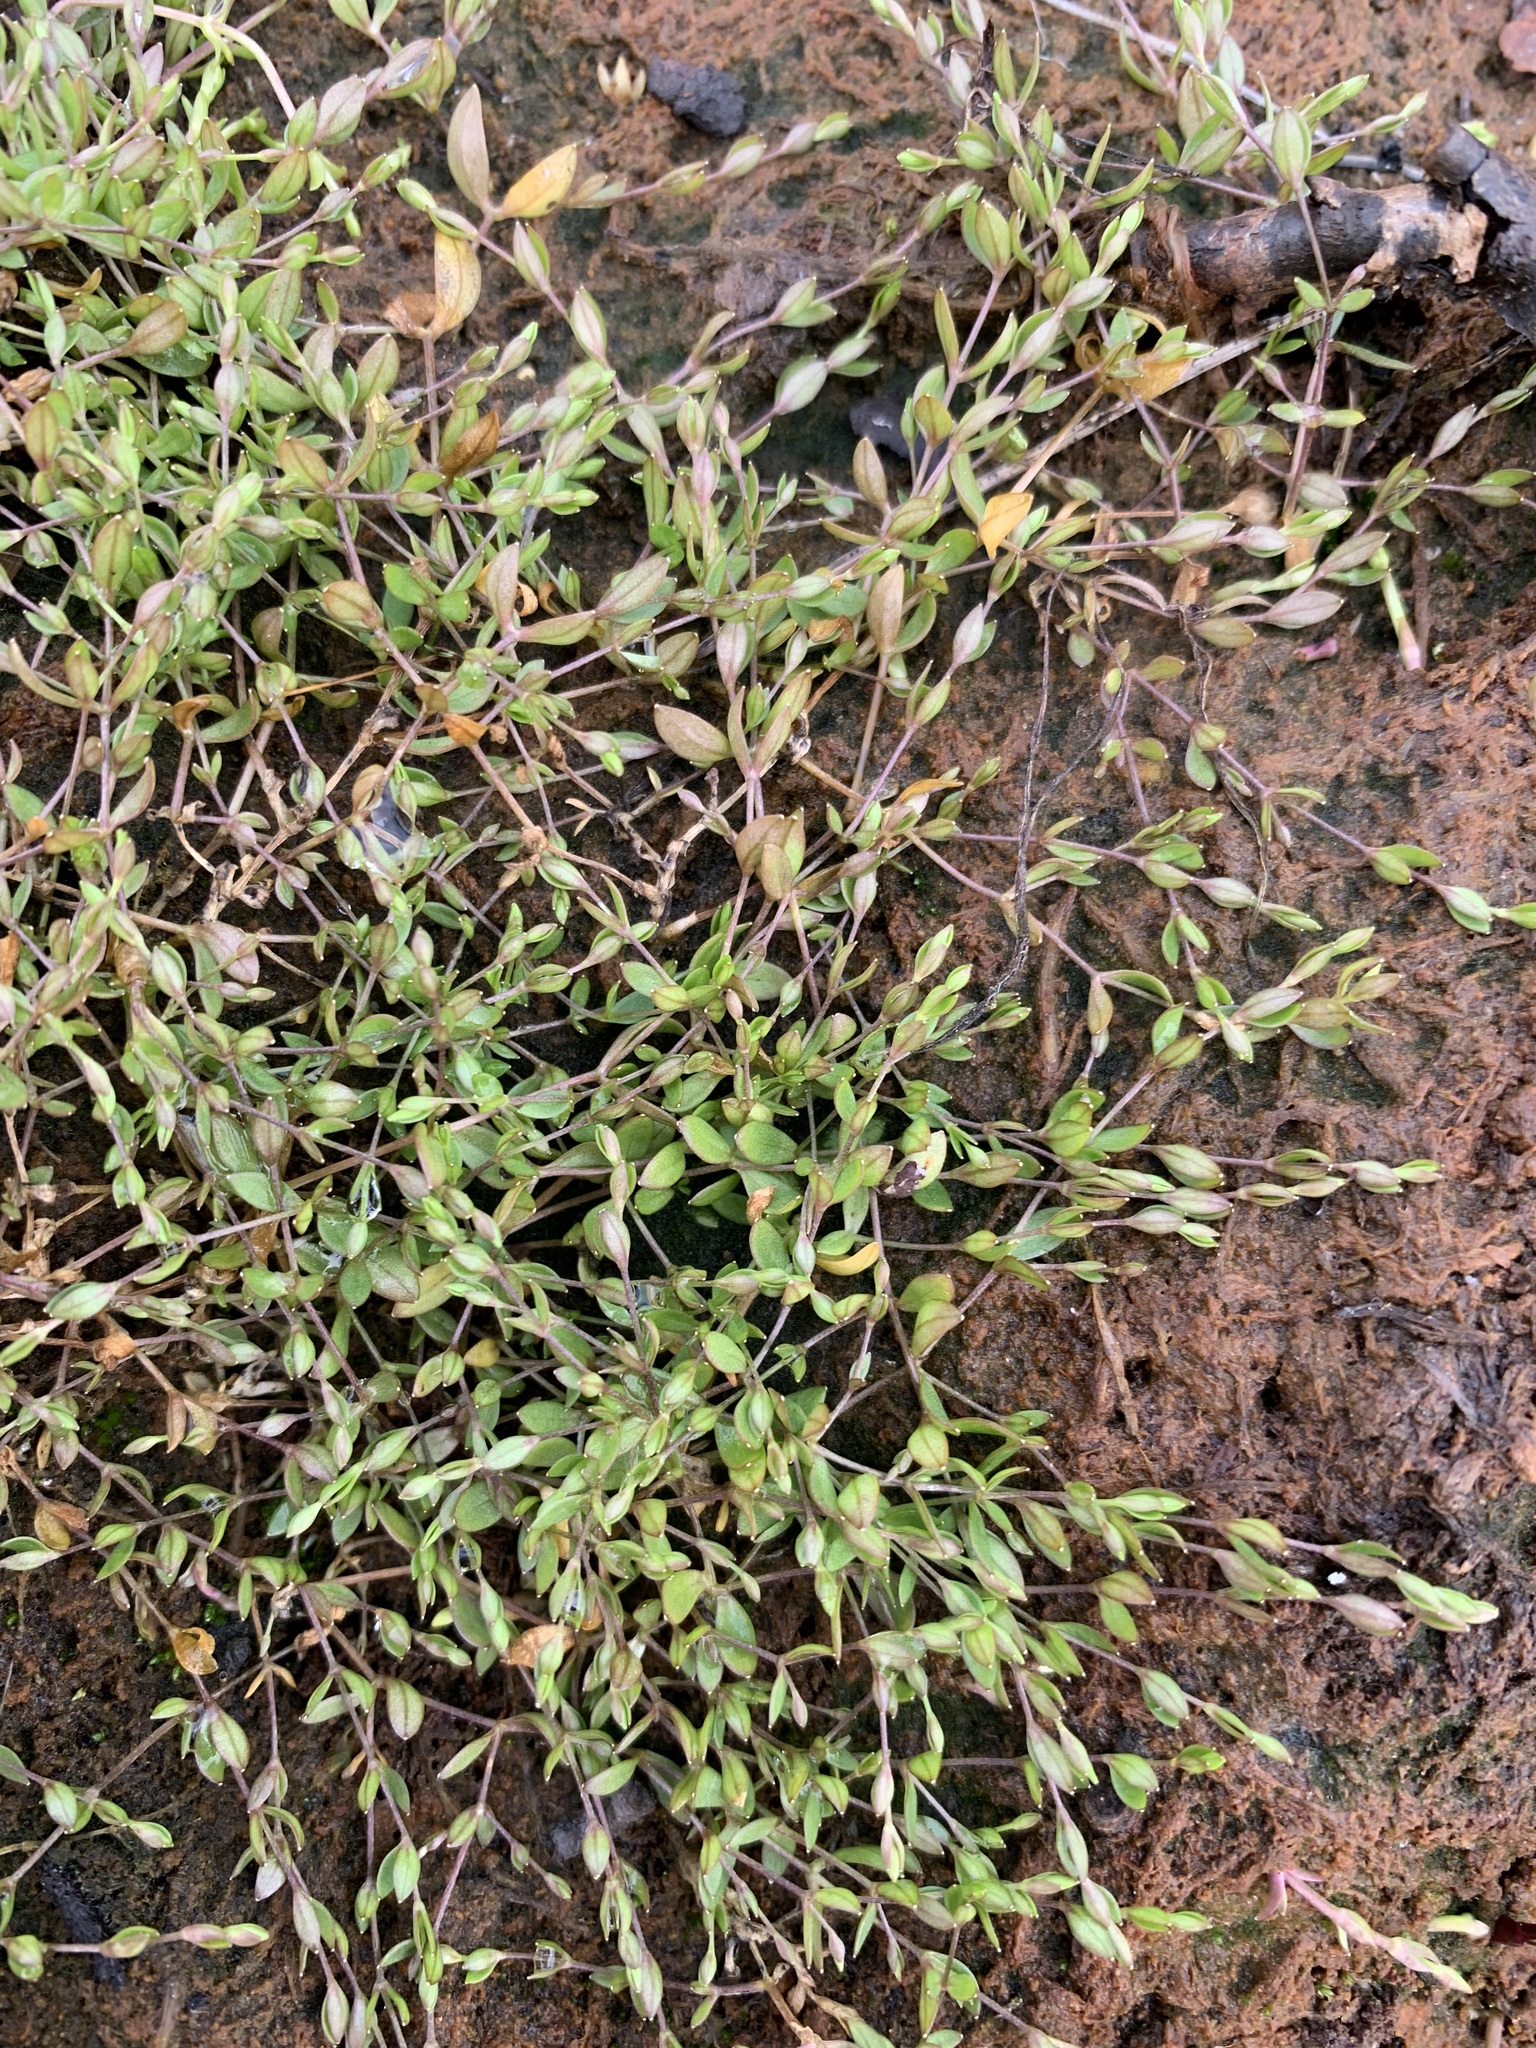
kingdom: Plantae
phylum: Tracheophyta
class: Magnoliopsida
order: Caryophyllales
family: Caryophyllaceae
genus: Stellaria
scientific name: Stellaria crassifolia
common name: Fleshy starwort
